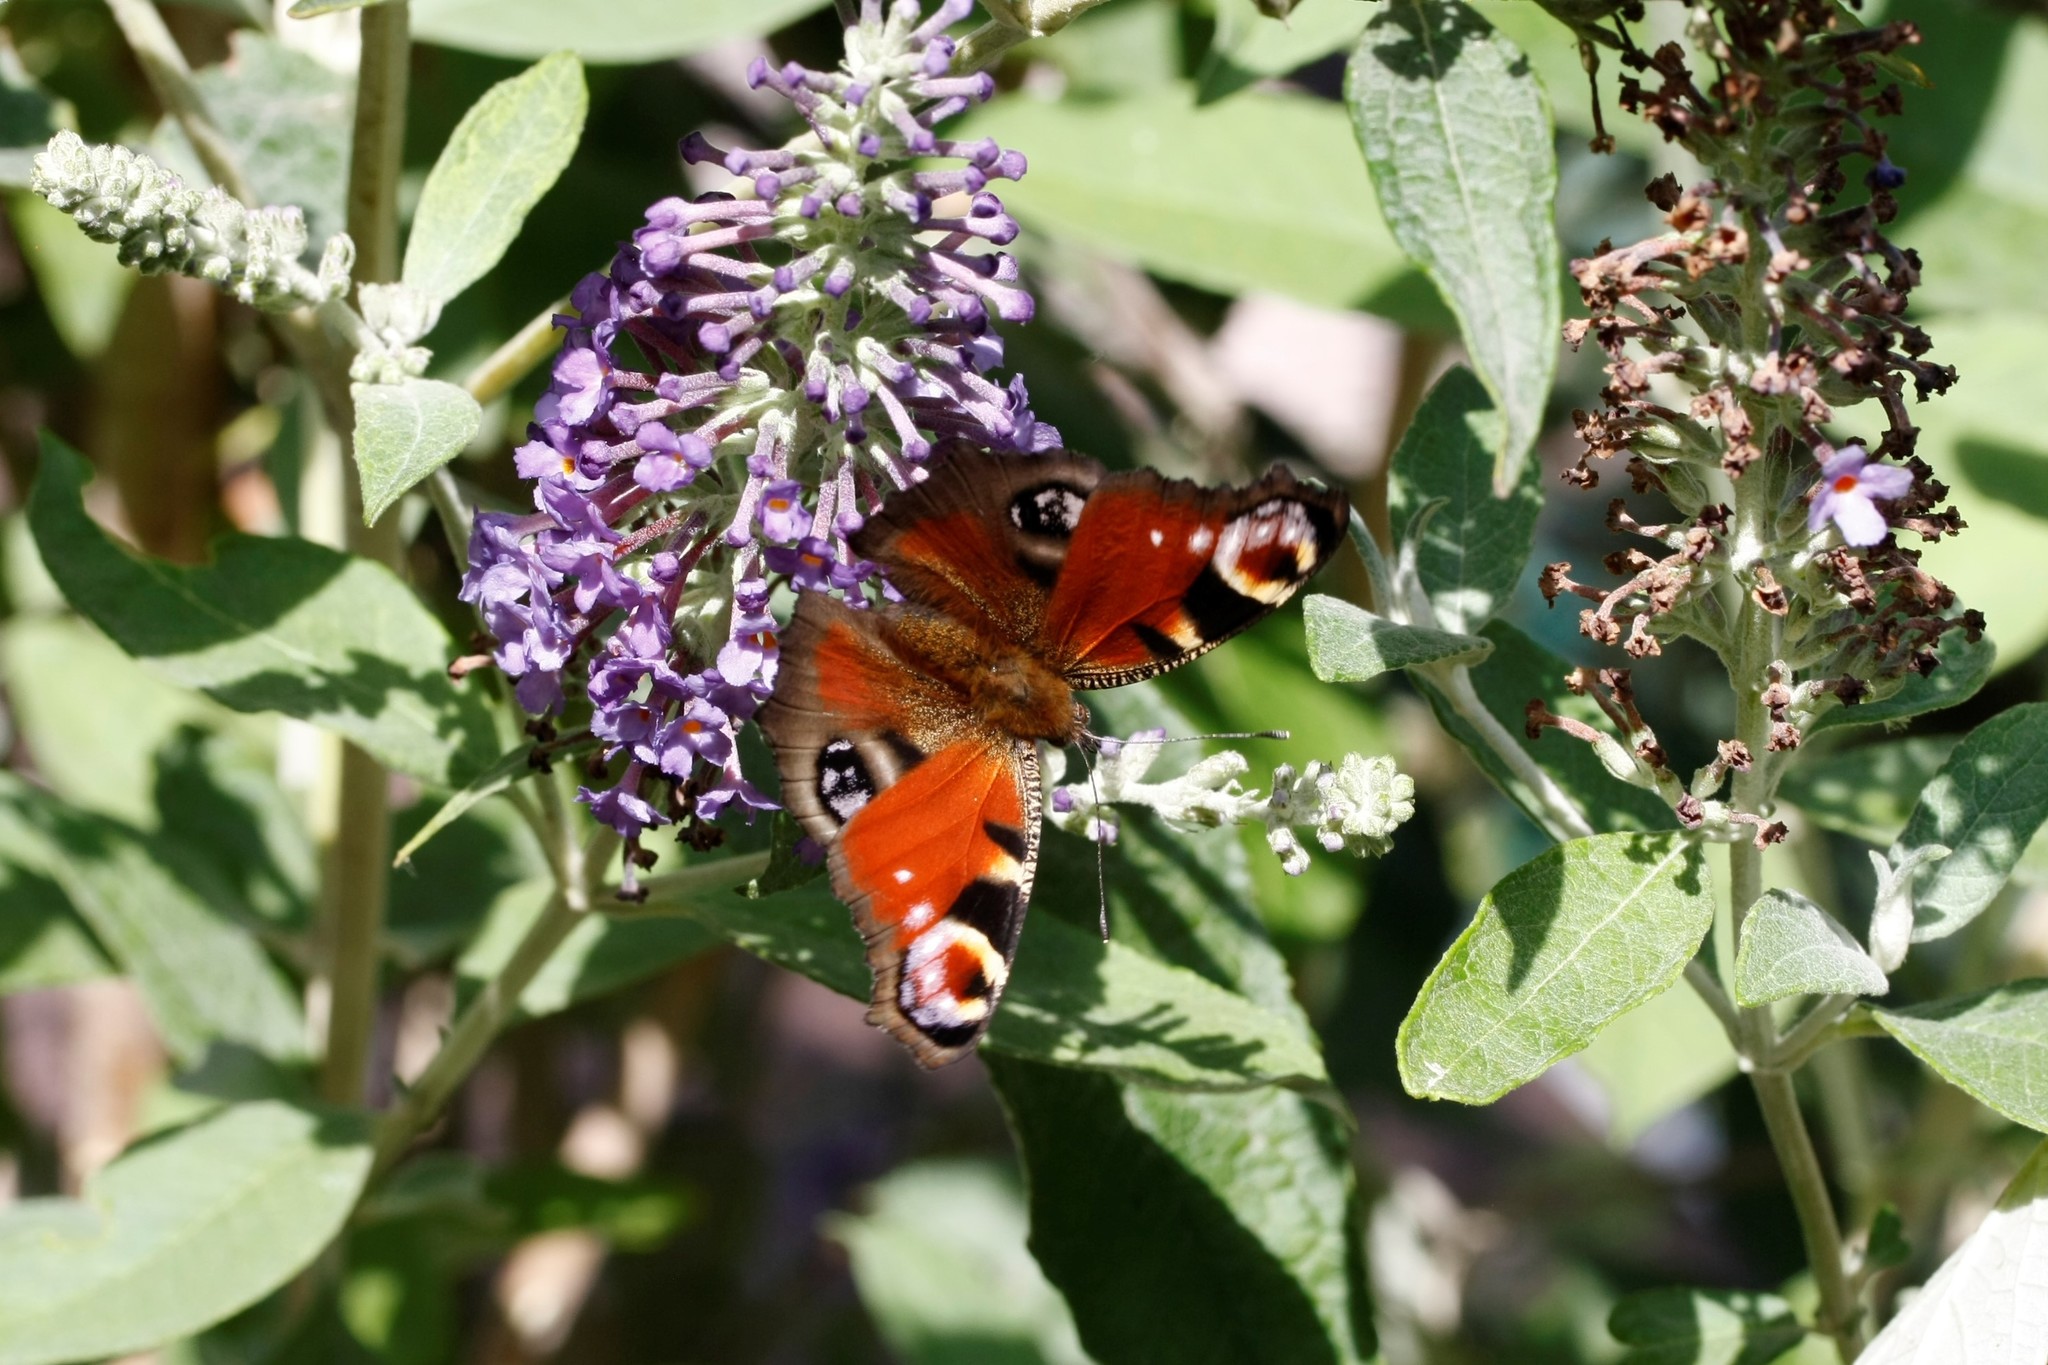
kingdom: Animalia
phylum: Arthropoda
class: Insecta
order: Lepidoptera
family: Nymphalidae
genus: Aglais
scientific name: Aglais io
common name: Peacock
